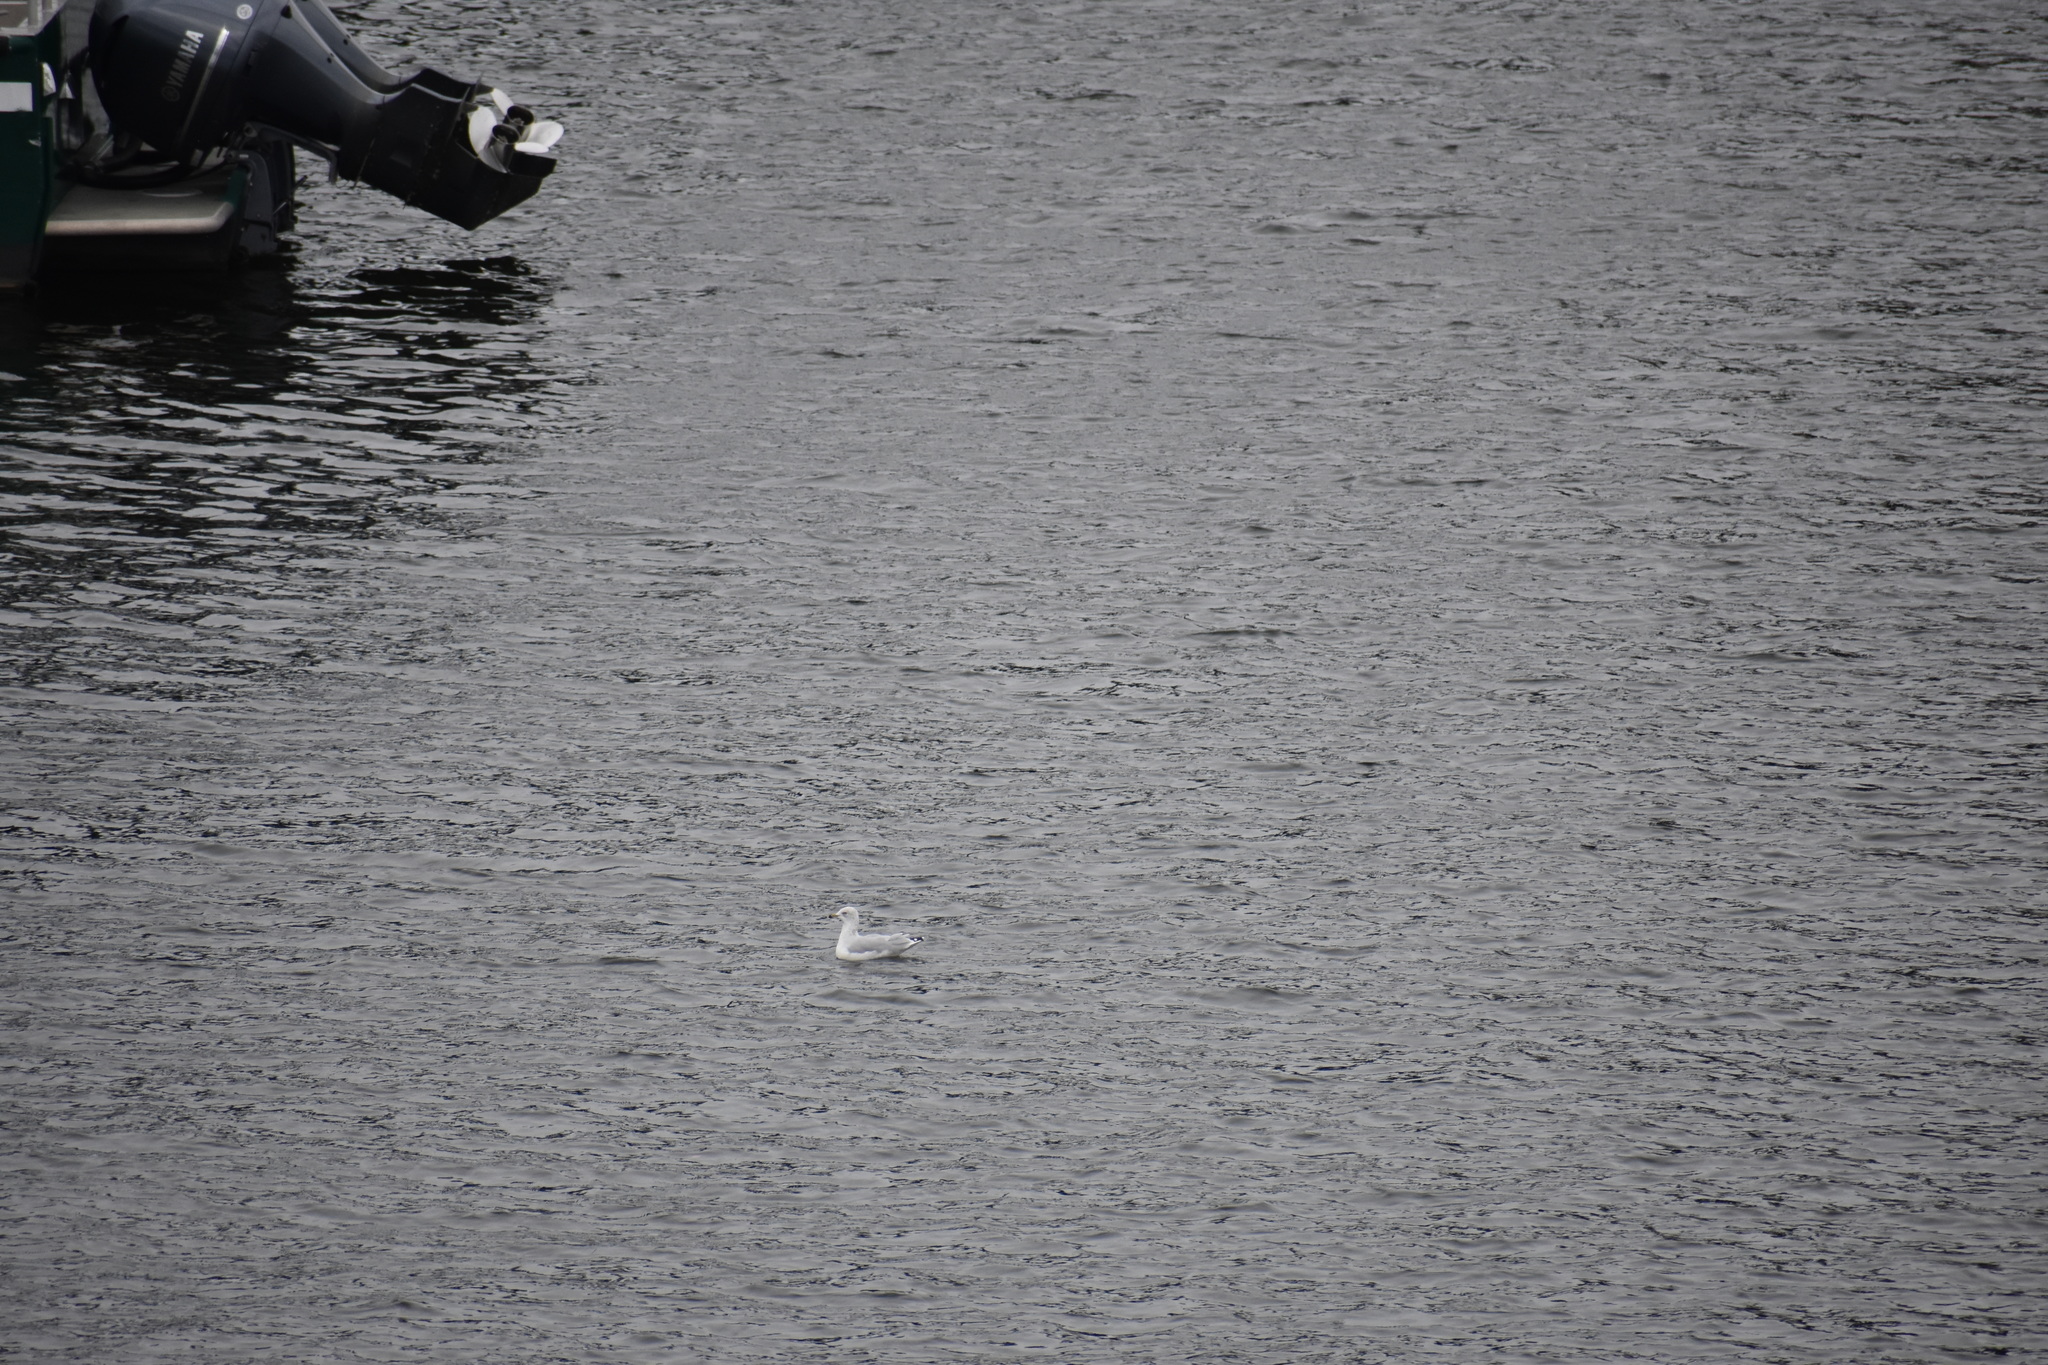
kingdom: Animalia
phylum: Chordata
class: Aves
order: Charadriiformes
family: Laridae
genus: Larus
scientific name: Larus delawarensis
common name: Ring-billed gull
